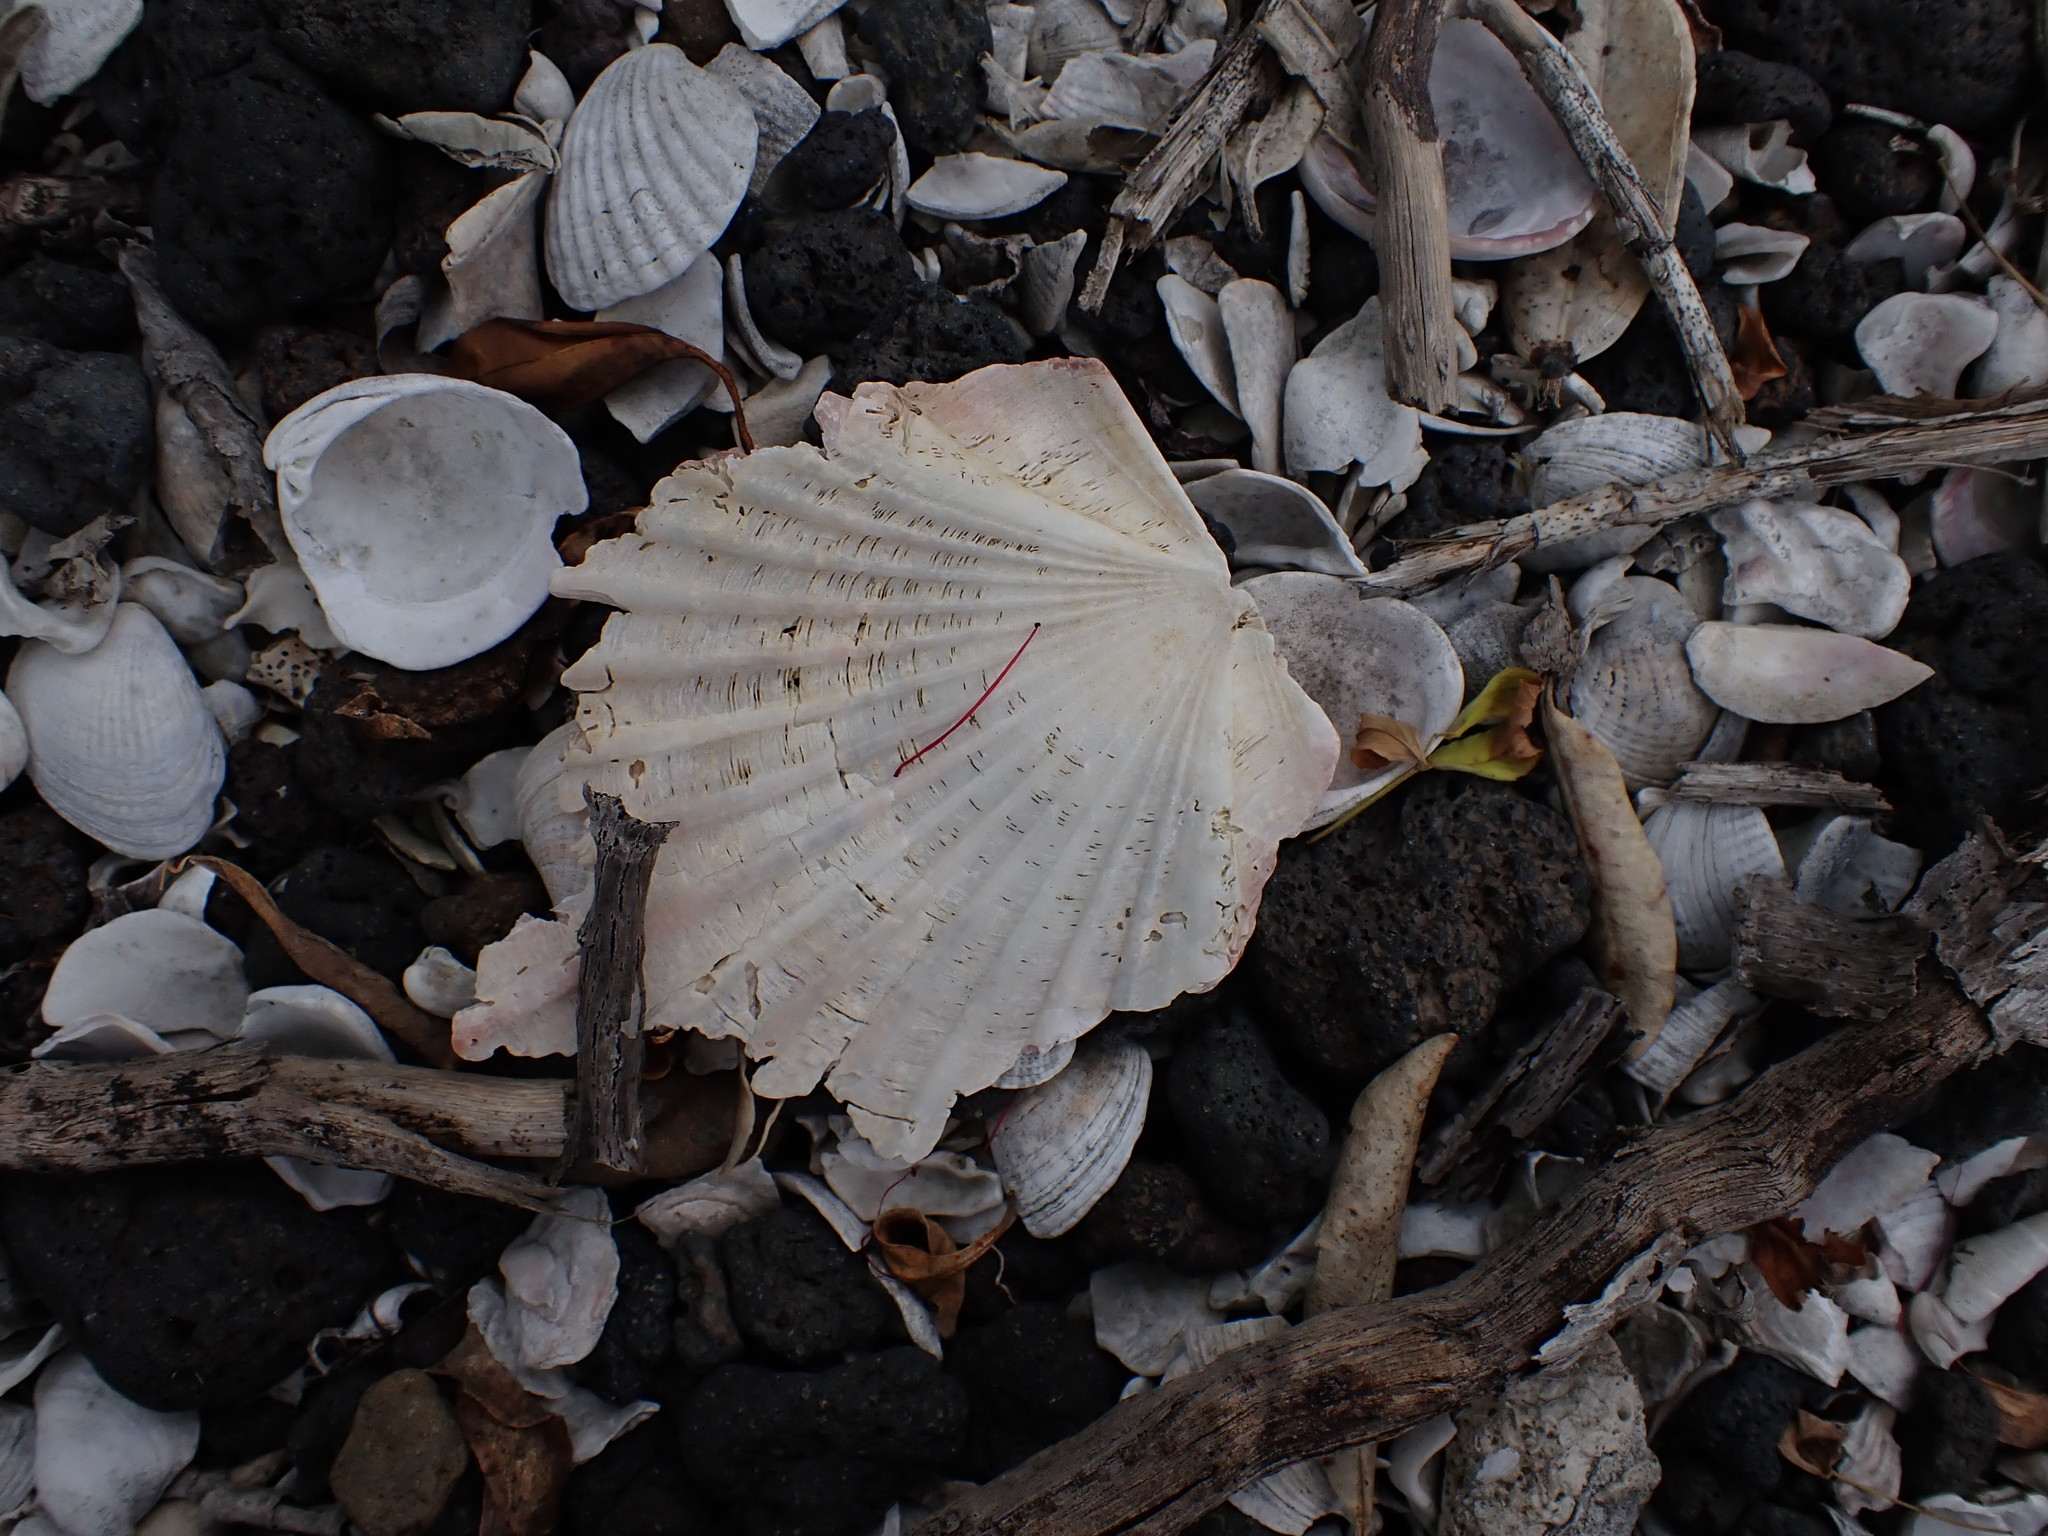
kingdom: Animalia
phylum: Mollusca
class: Bivalvia
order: Pectinida
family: Pectinidae
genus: Pecten
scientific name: Pecten novaezelandiae
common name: New zealand scallop
